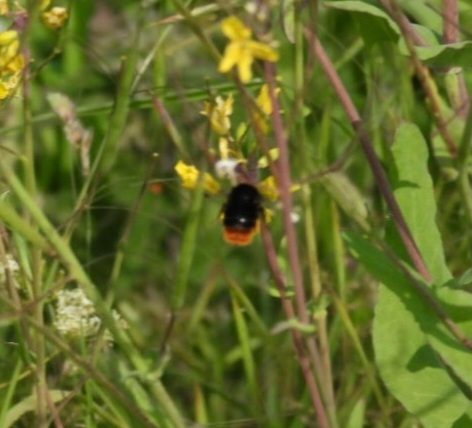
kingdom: Animalia
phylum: Arthropoda
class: Insecta
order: Hymenoptera
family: Apidae
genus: Bombus
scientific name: Bombus lapidarius
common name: Large red-tailed humble-bee
